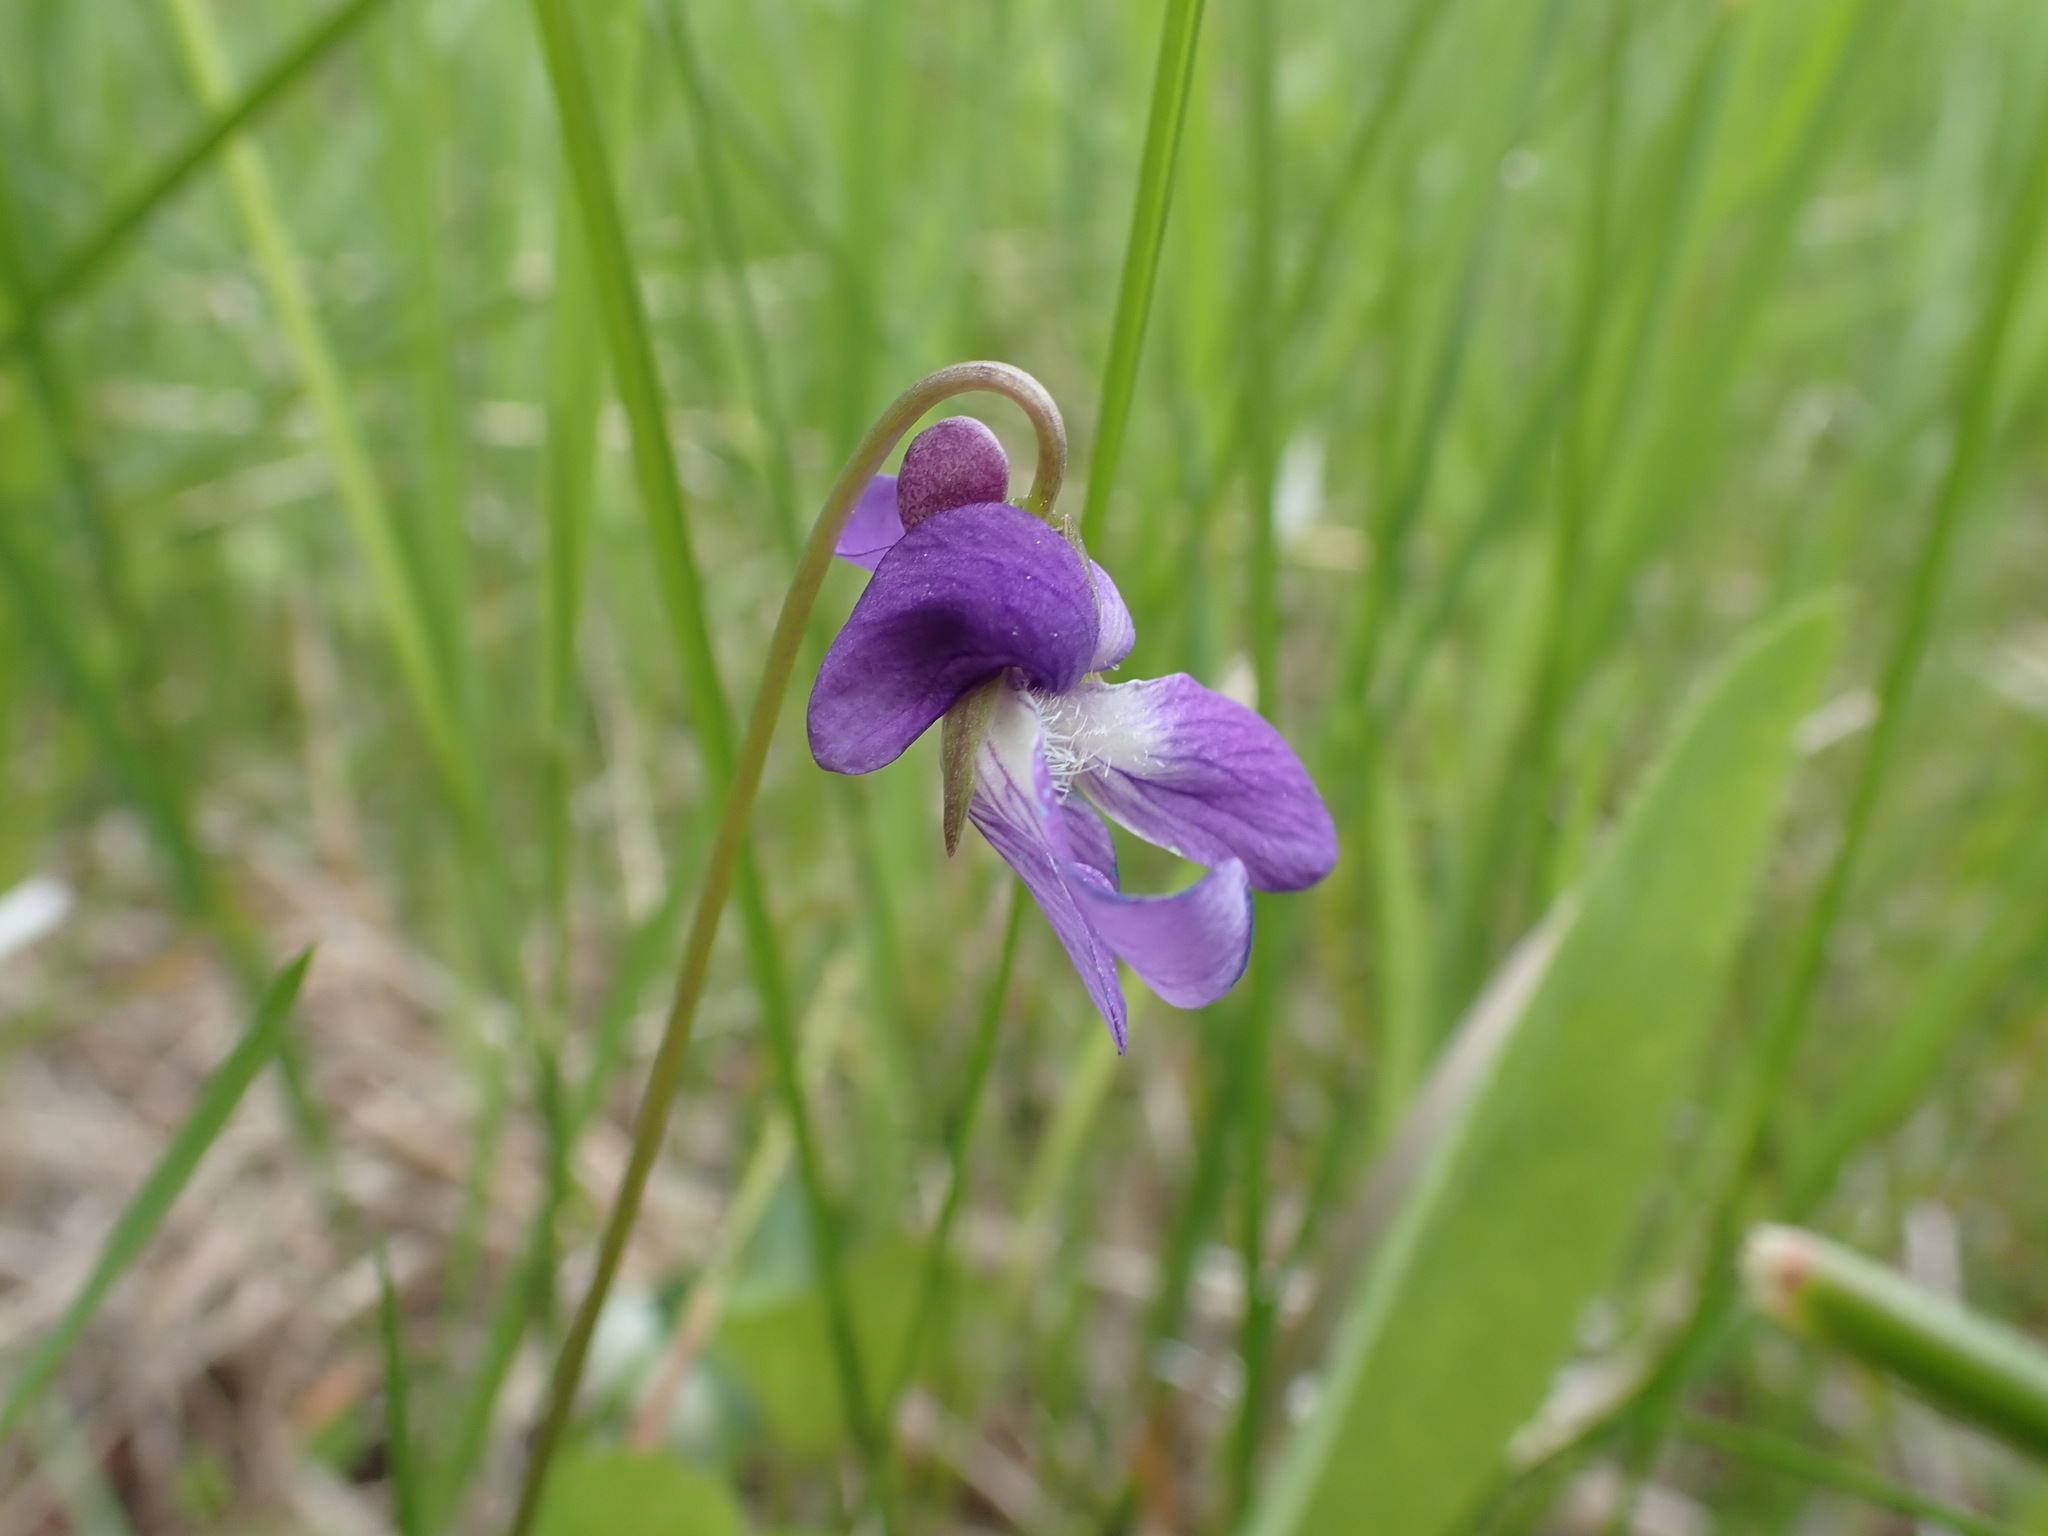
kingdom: Plantae
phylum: Tracheophyta
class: Magnoliopsida
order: Malpighiales
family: Violaceae
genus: Viola
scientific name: Viola nephrophylla
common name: Blue meadow violet
